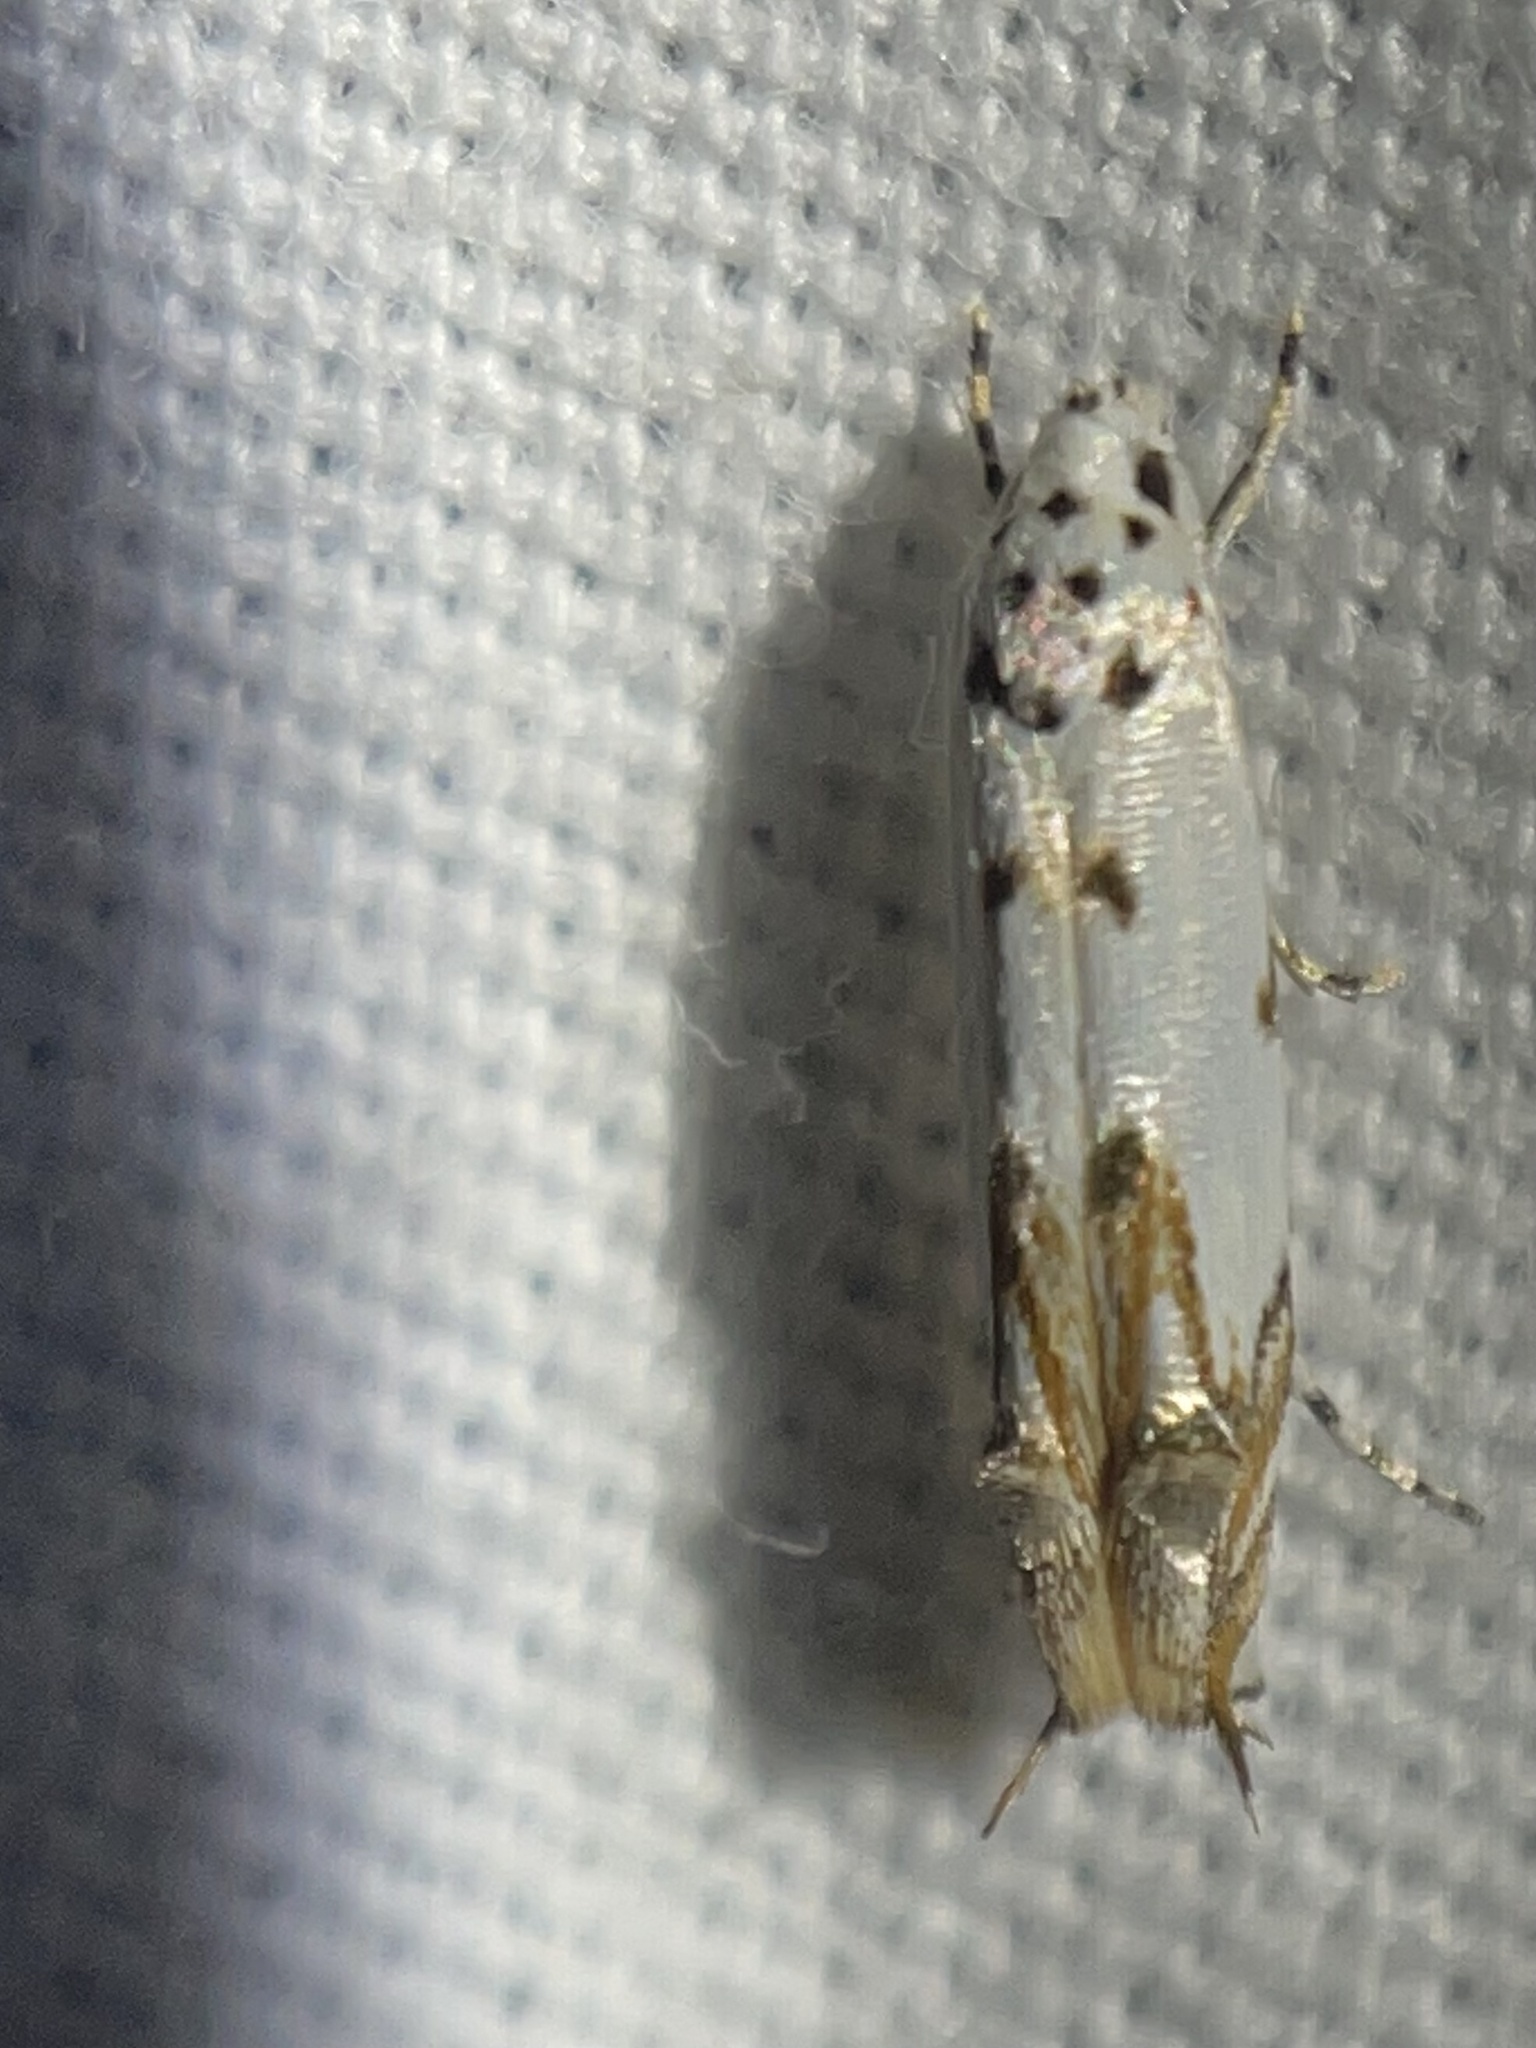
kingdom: Animalia
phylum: Arthropoda
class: Insecta
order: Lepidoptera
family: Momphidae
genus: Mompha
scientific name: Mompha eloisella
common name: Red-streaked mompha moth
